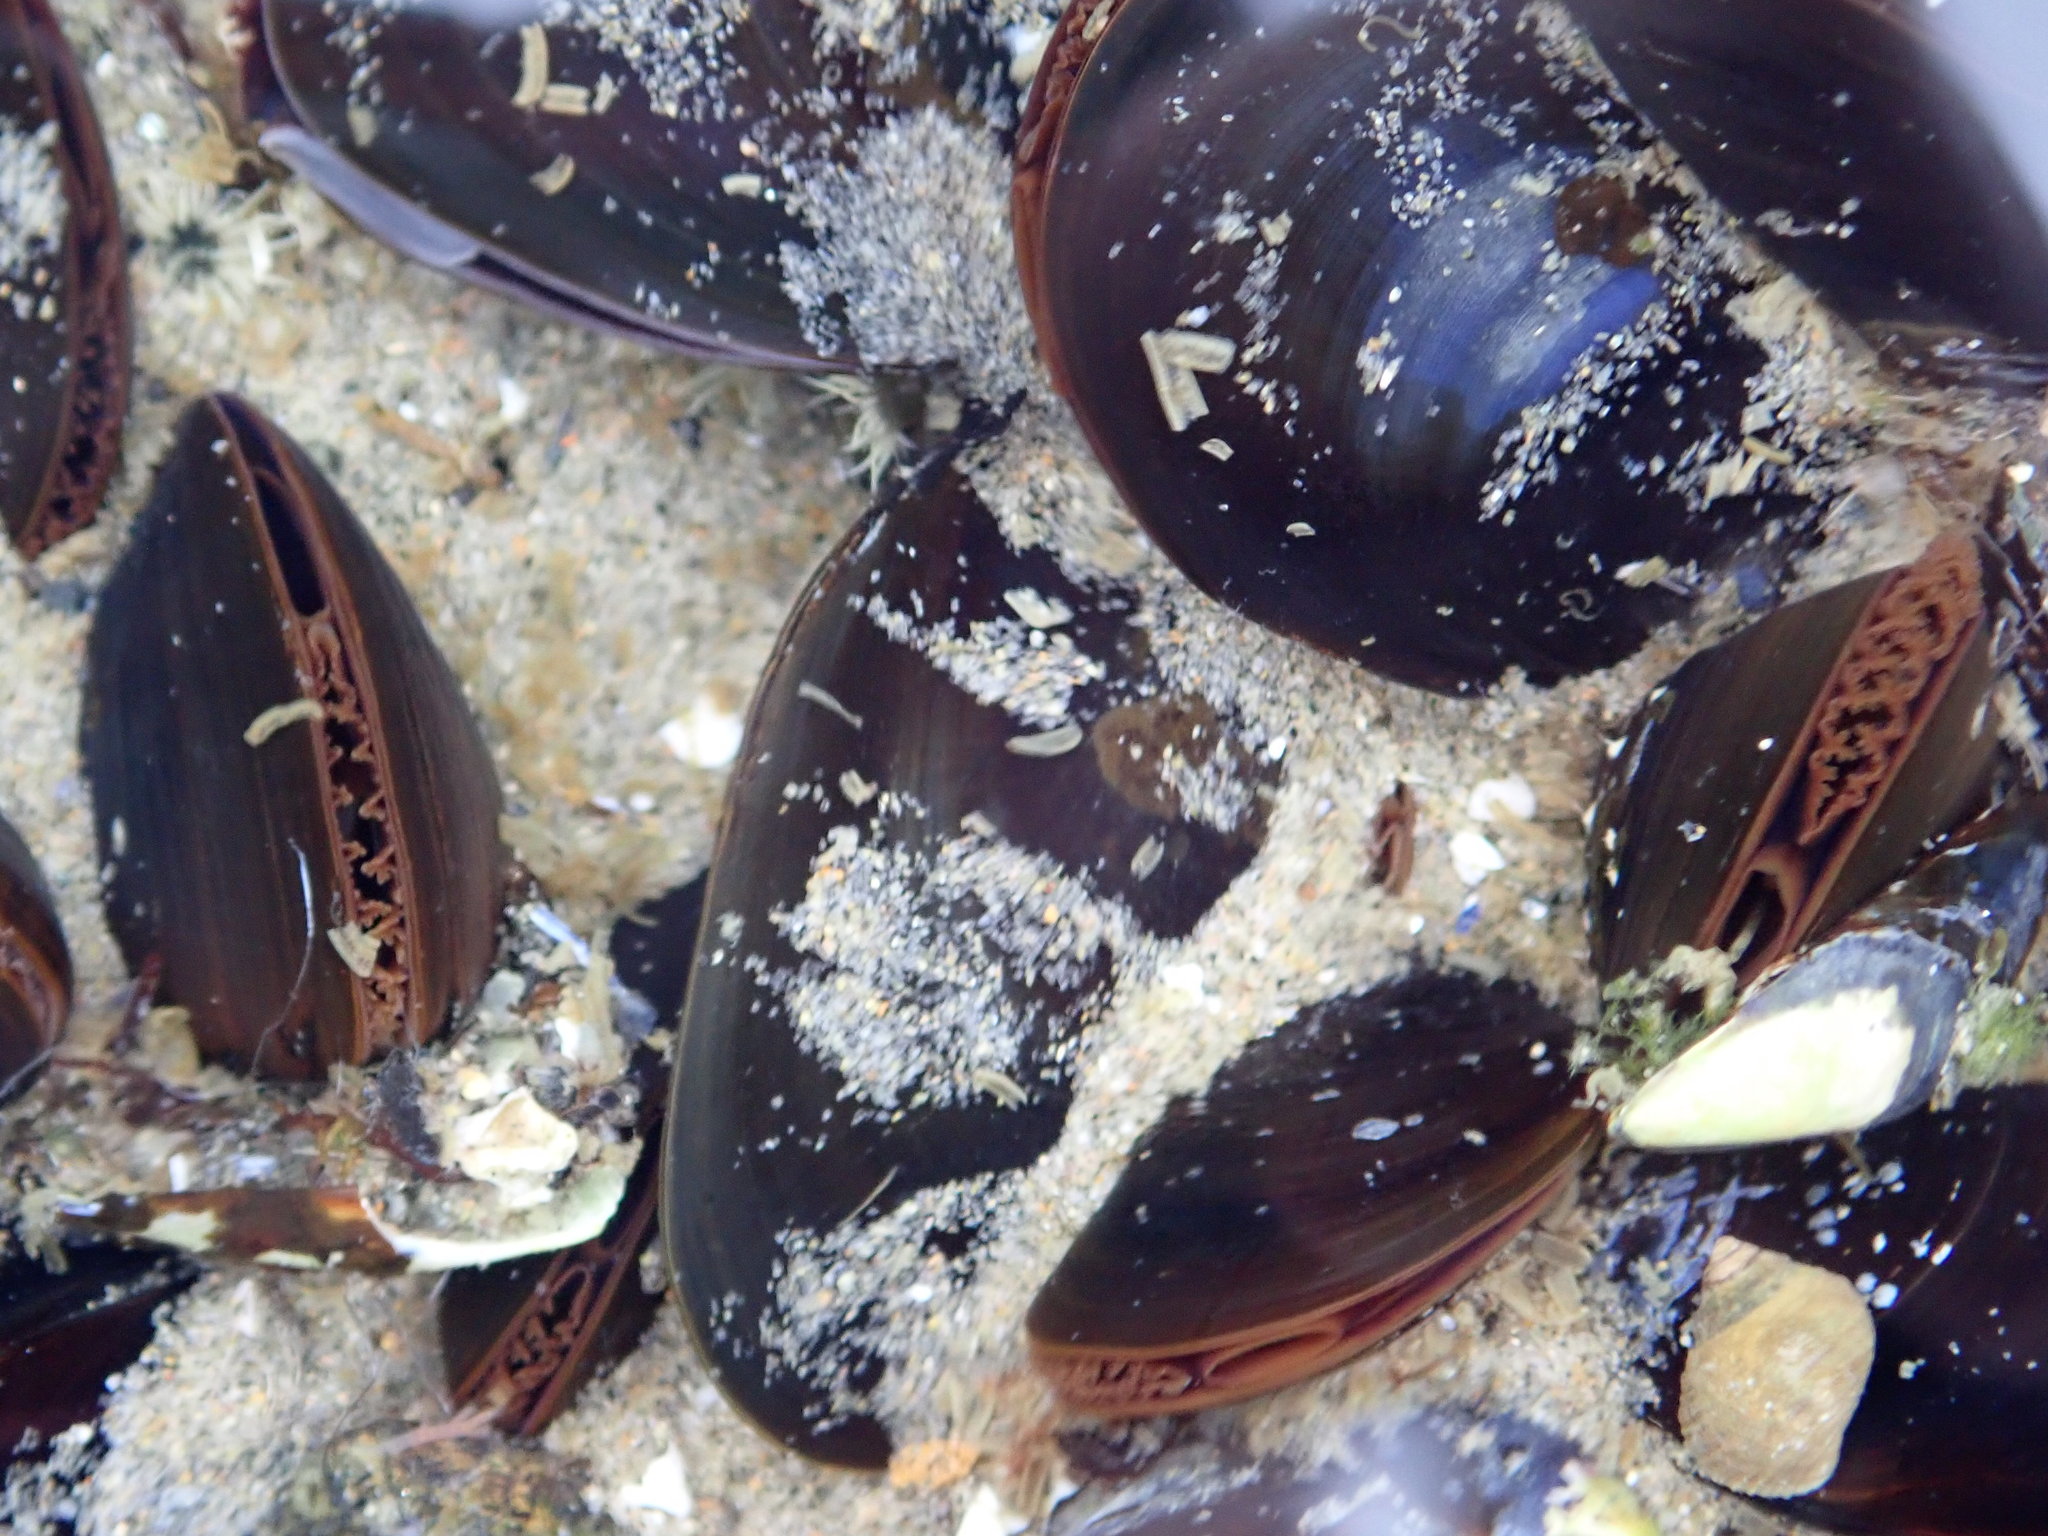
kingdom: Animalia
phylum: Mollusca
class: Bivalvia
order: Mytilida
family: Mytilidae
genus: Mytilus
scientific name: Mytilus edulis
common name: Blue mussel
